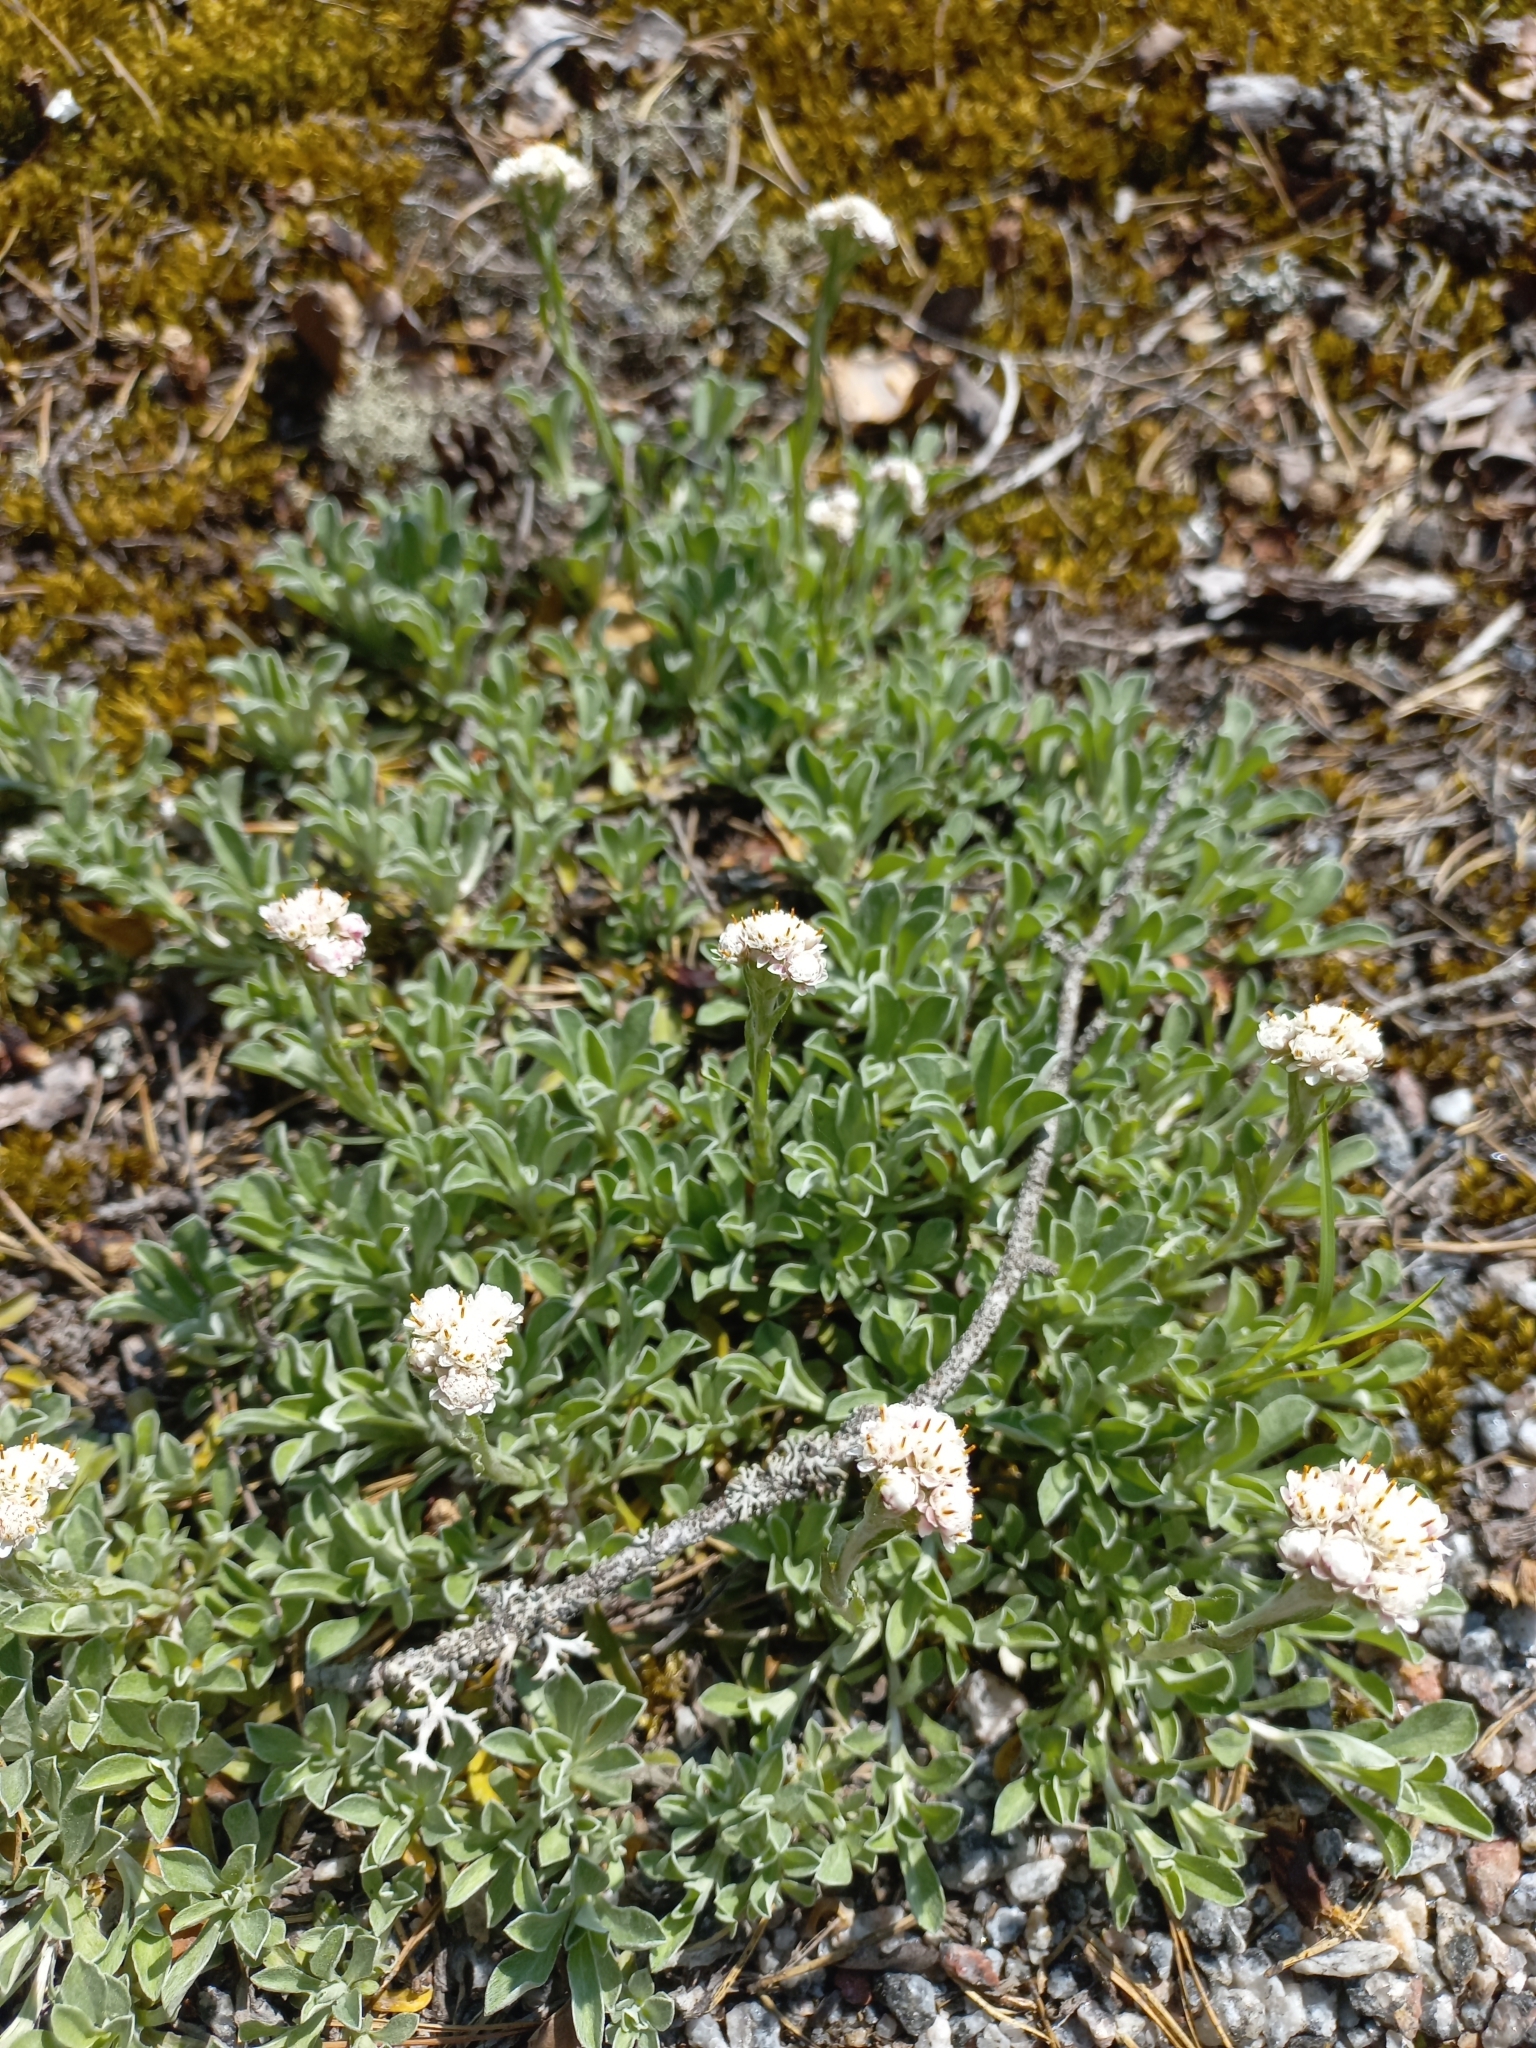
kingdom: Plantae
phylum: Tracheophyta
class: Magnoliopsida
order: Asterales
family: Asteraceae
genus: Antennaria
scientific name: Antennaria dioica
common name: Mountain everlasting
